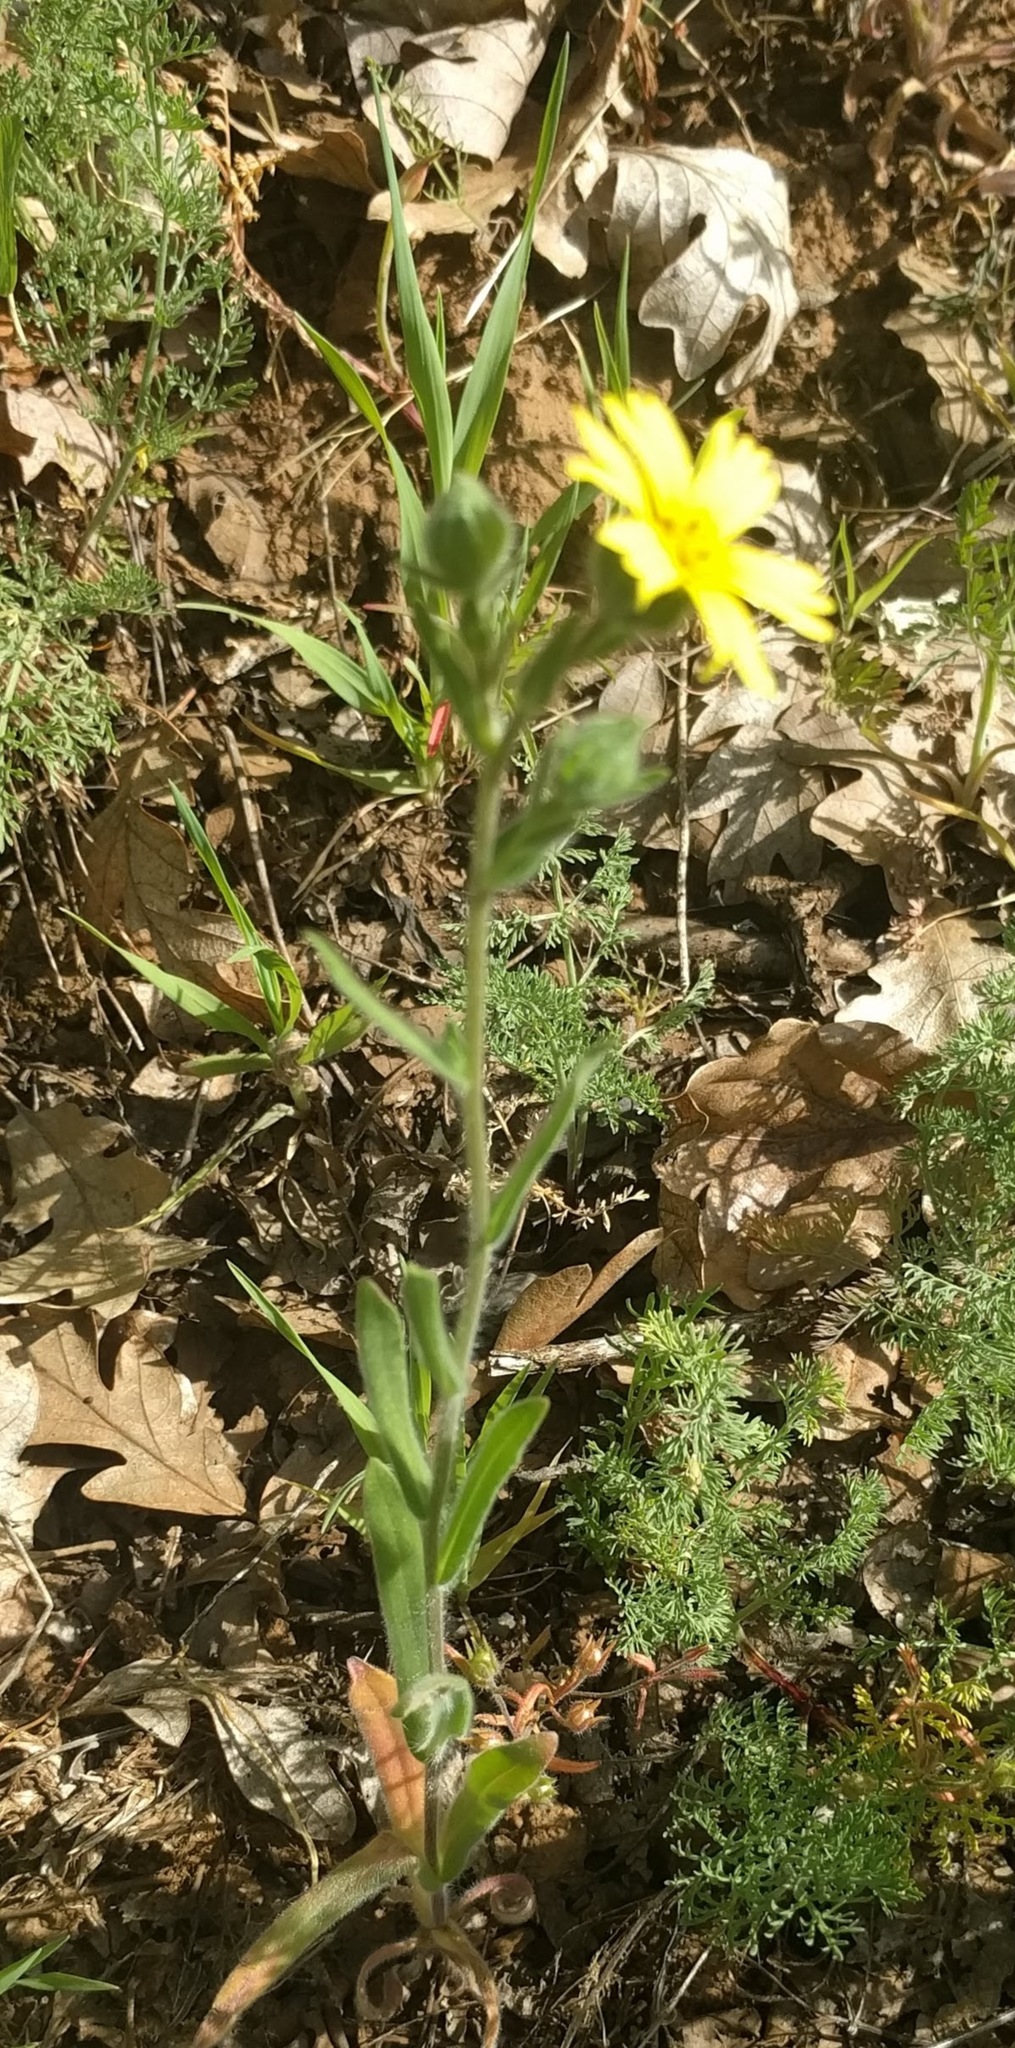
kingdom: Plantae
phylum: Tracheophyta
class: Magnoliopsida
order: Asterales
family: Asteraceae
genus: Madia
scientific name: Madia citriodora
